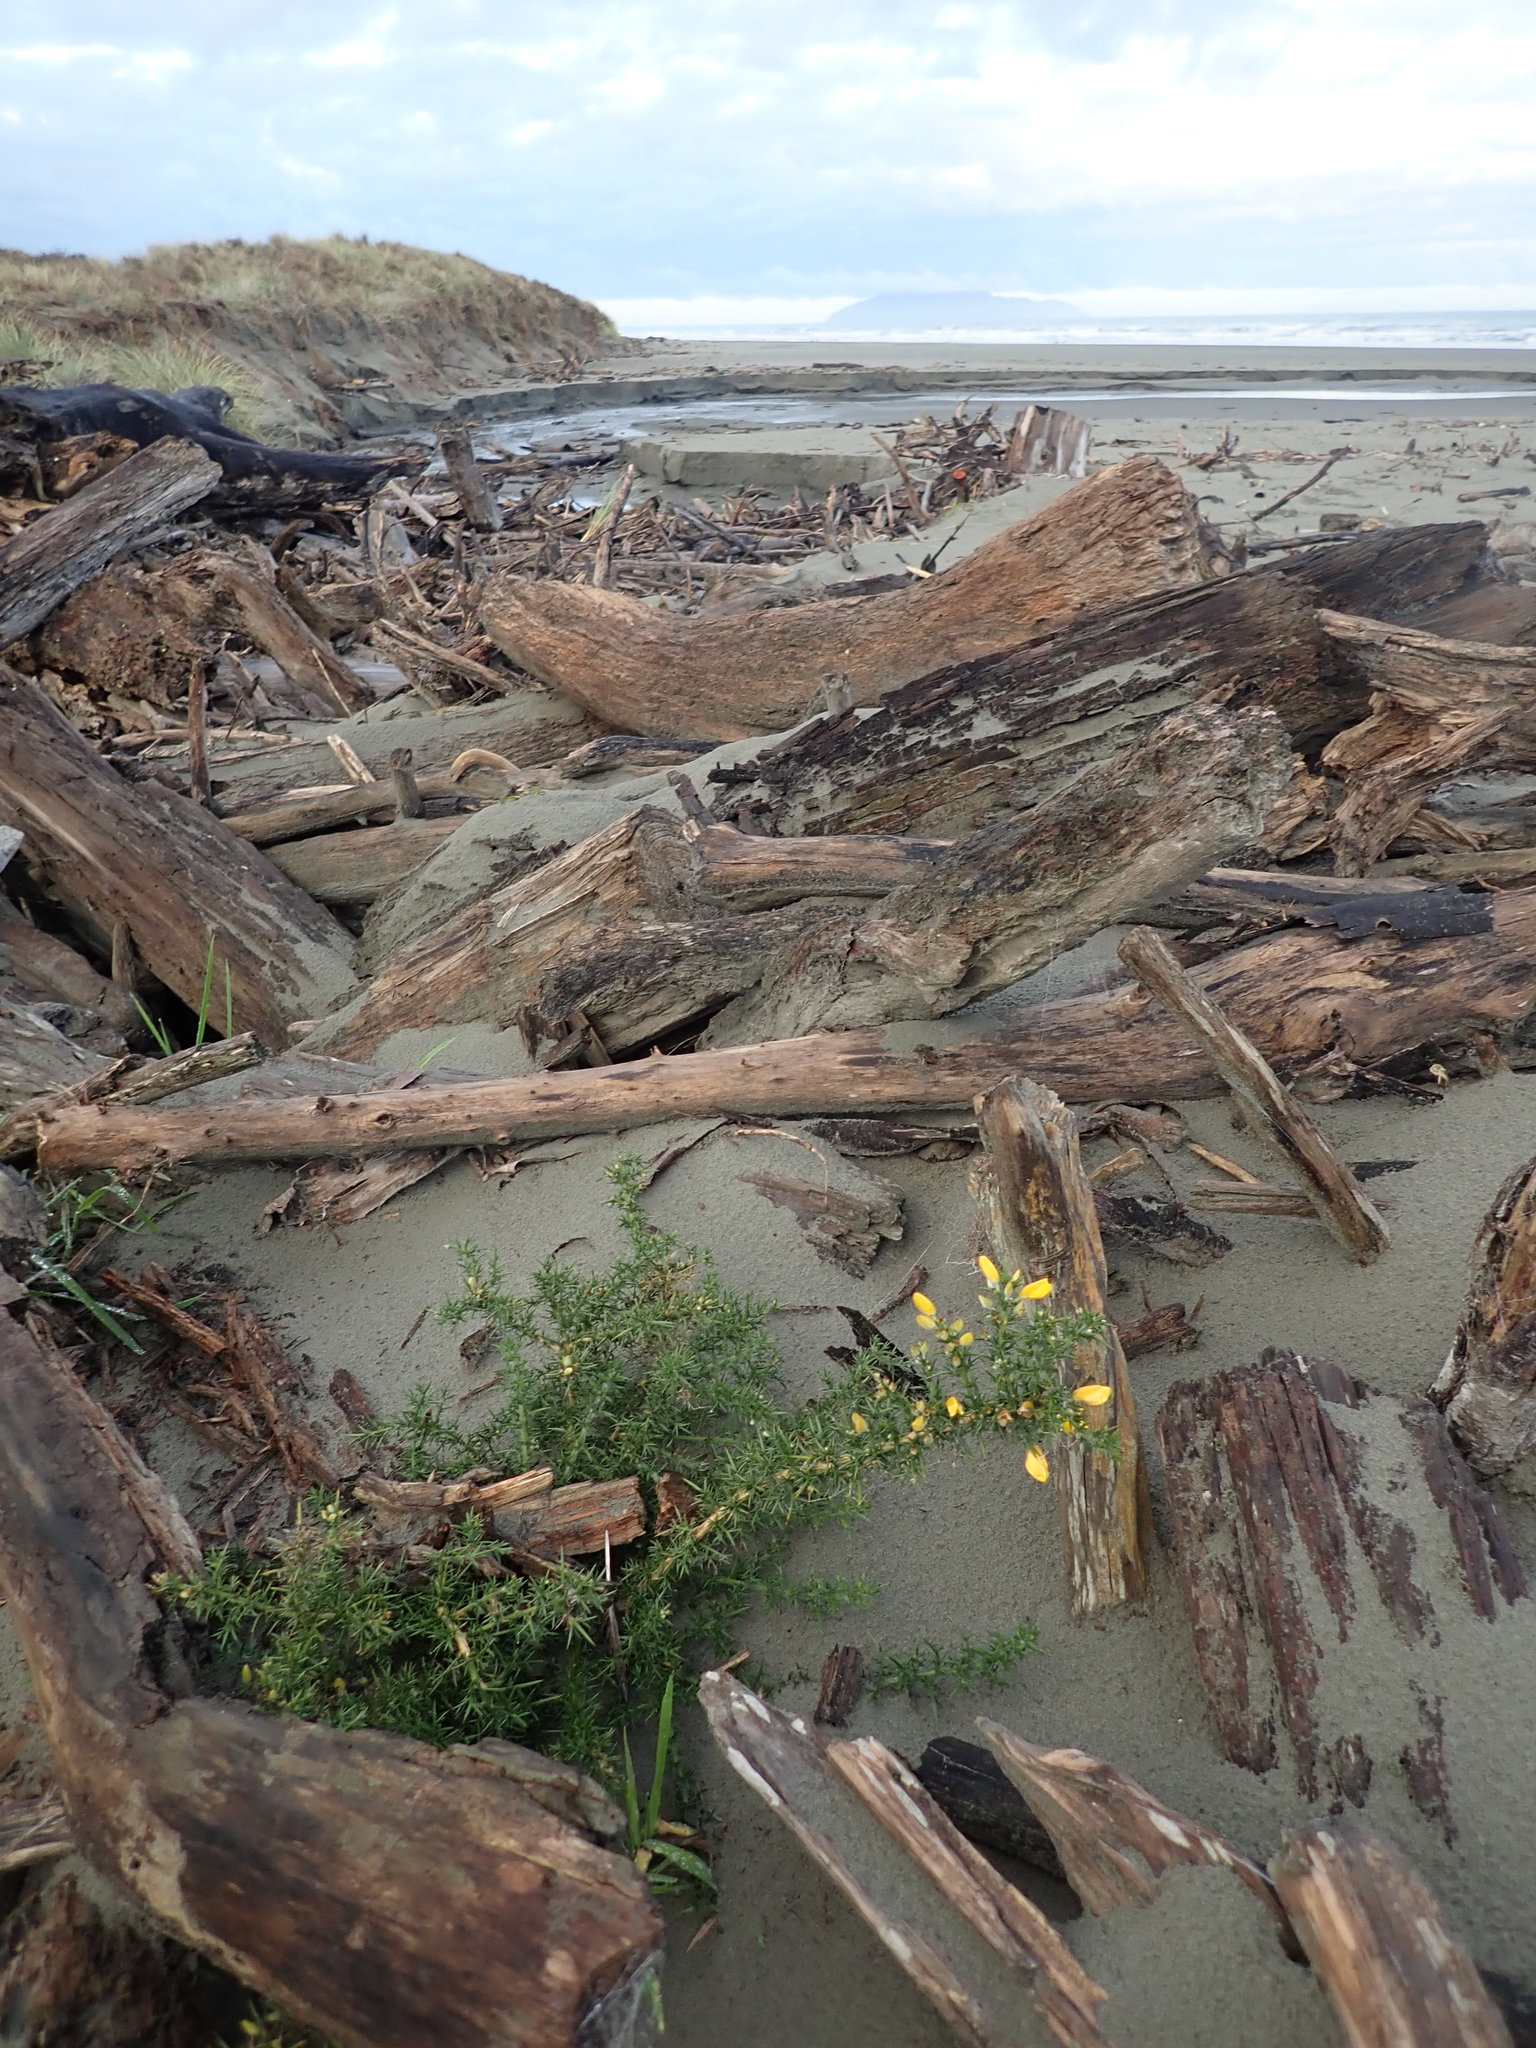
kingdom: Plantae
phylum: Tracheophyta
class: Magnoliopsida
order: Fabales
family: Fabaceae
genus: Ulex
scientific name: Ulex europaeus
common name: Common gorse
